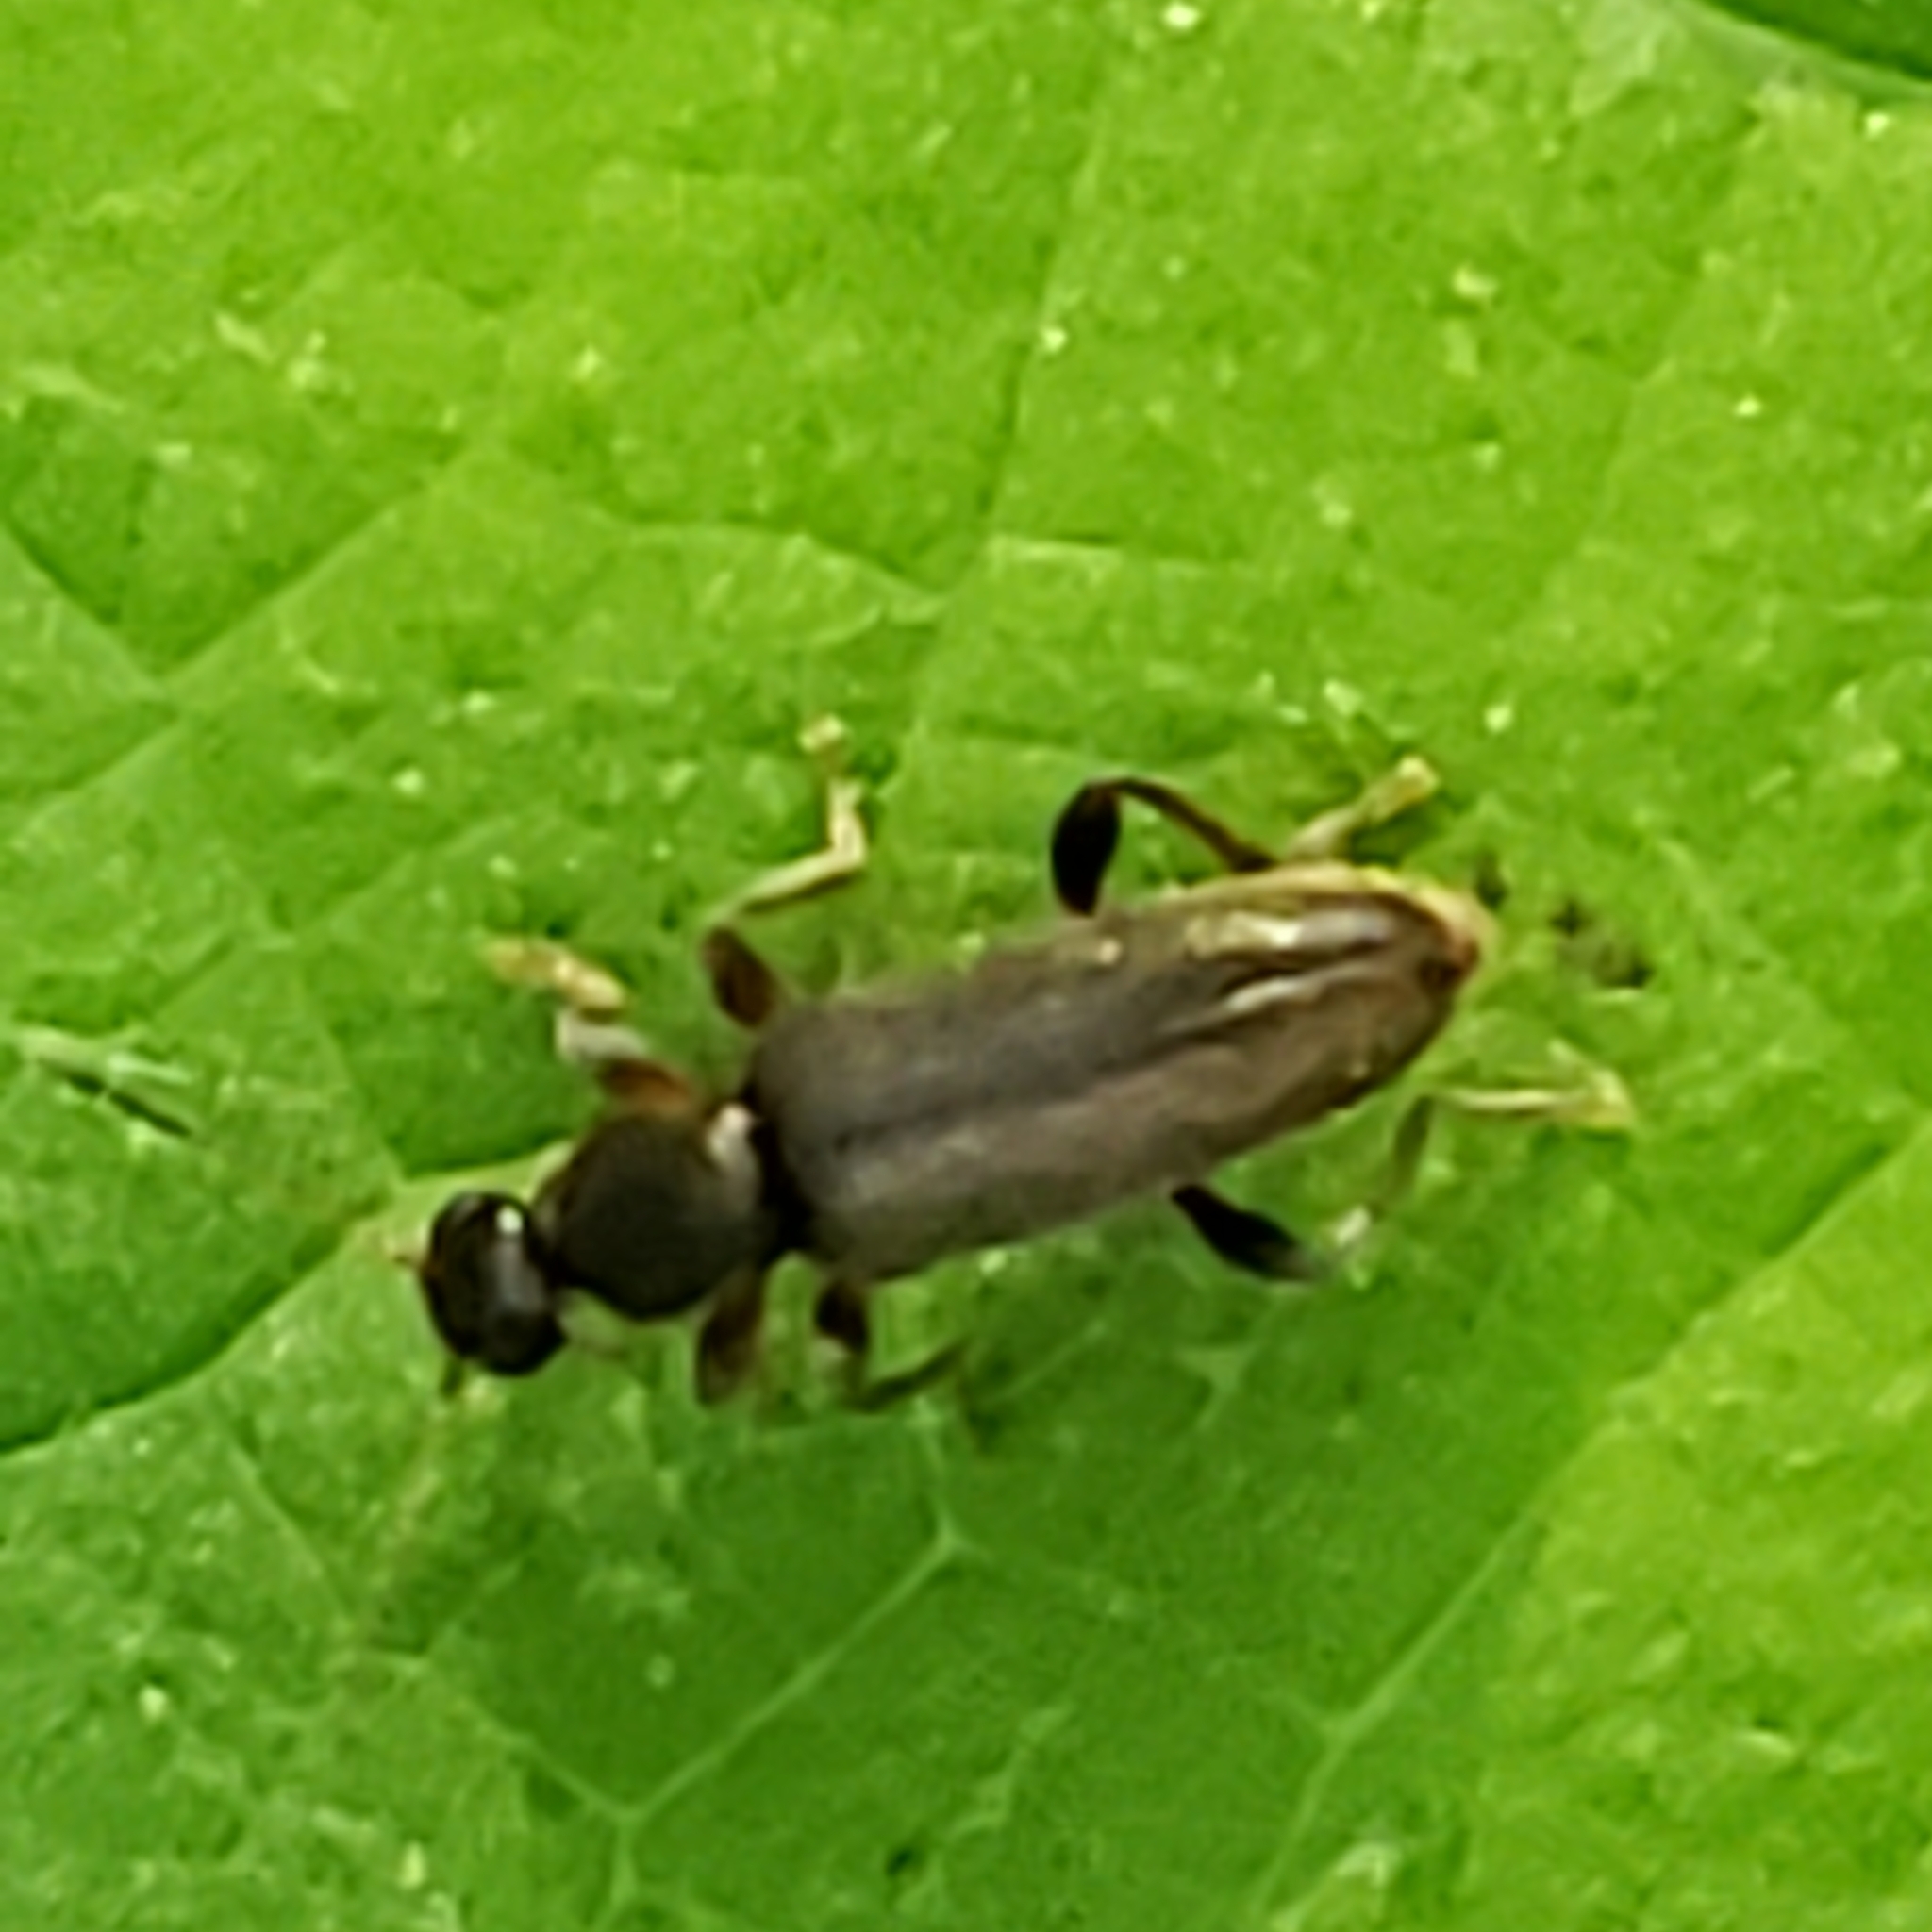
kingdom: Animalia
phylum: Arthropoda
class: Insecta
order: Coleoptera
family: Anthicidae
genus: Macratria
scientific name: Macratria murina
